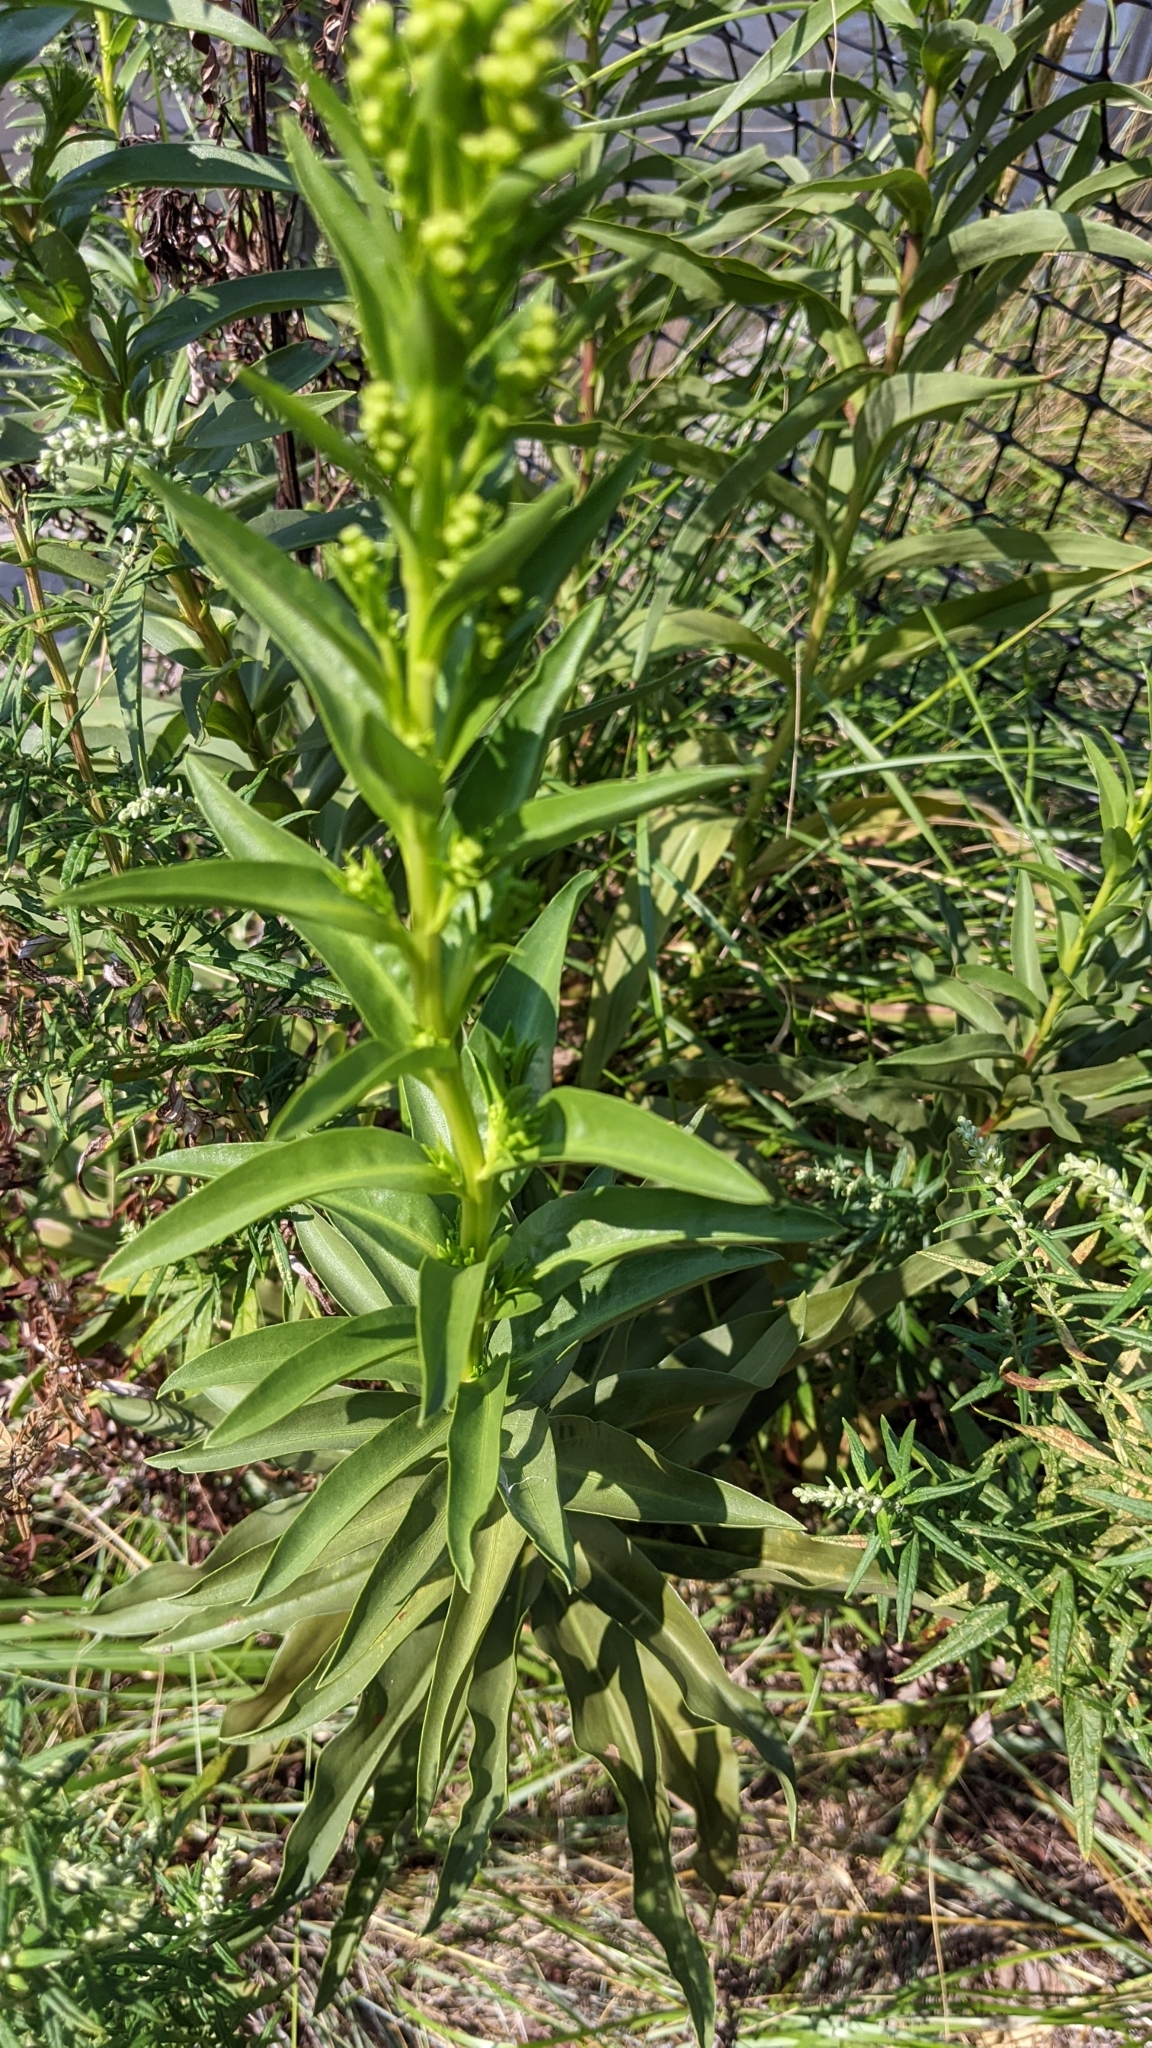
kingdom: Plantae
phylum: Tracheophyta
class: Magnoliopsida
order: Asterales
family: Asteraceae
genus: Solidago
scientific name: Solidago sempervirens
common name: Salt-marsh goldenrod
